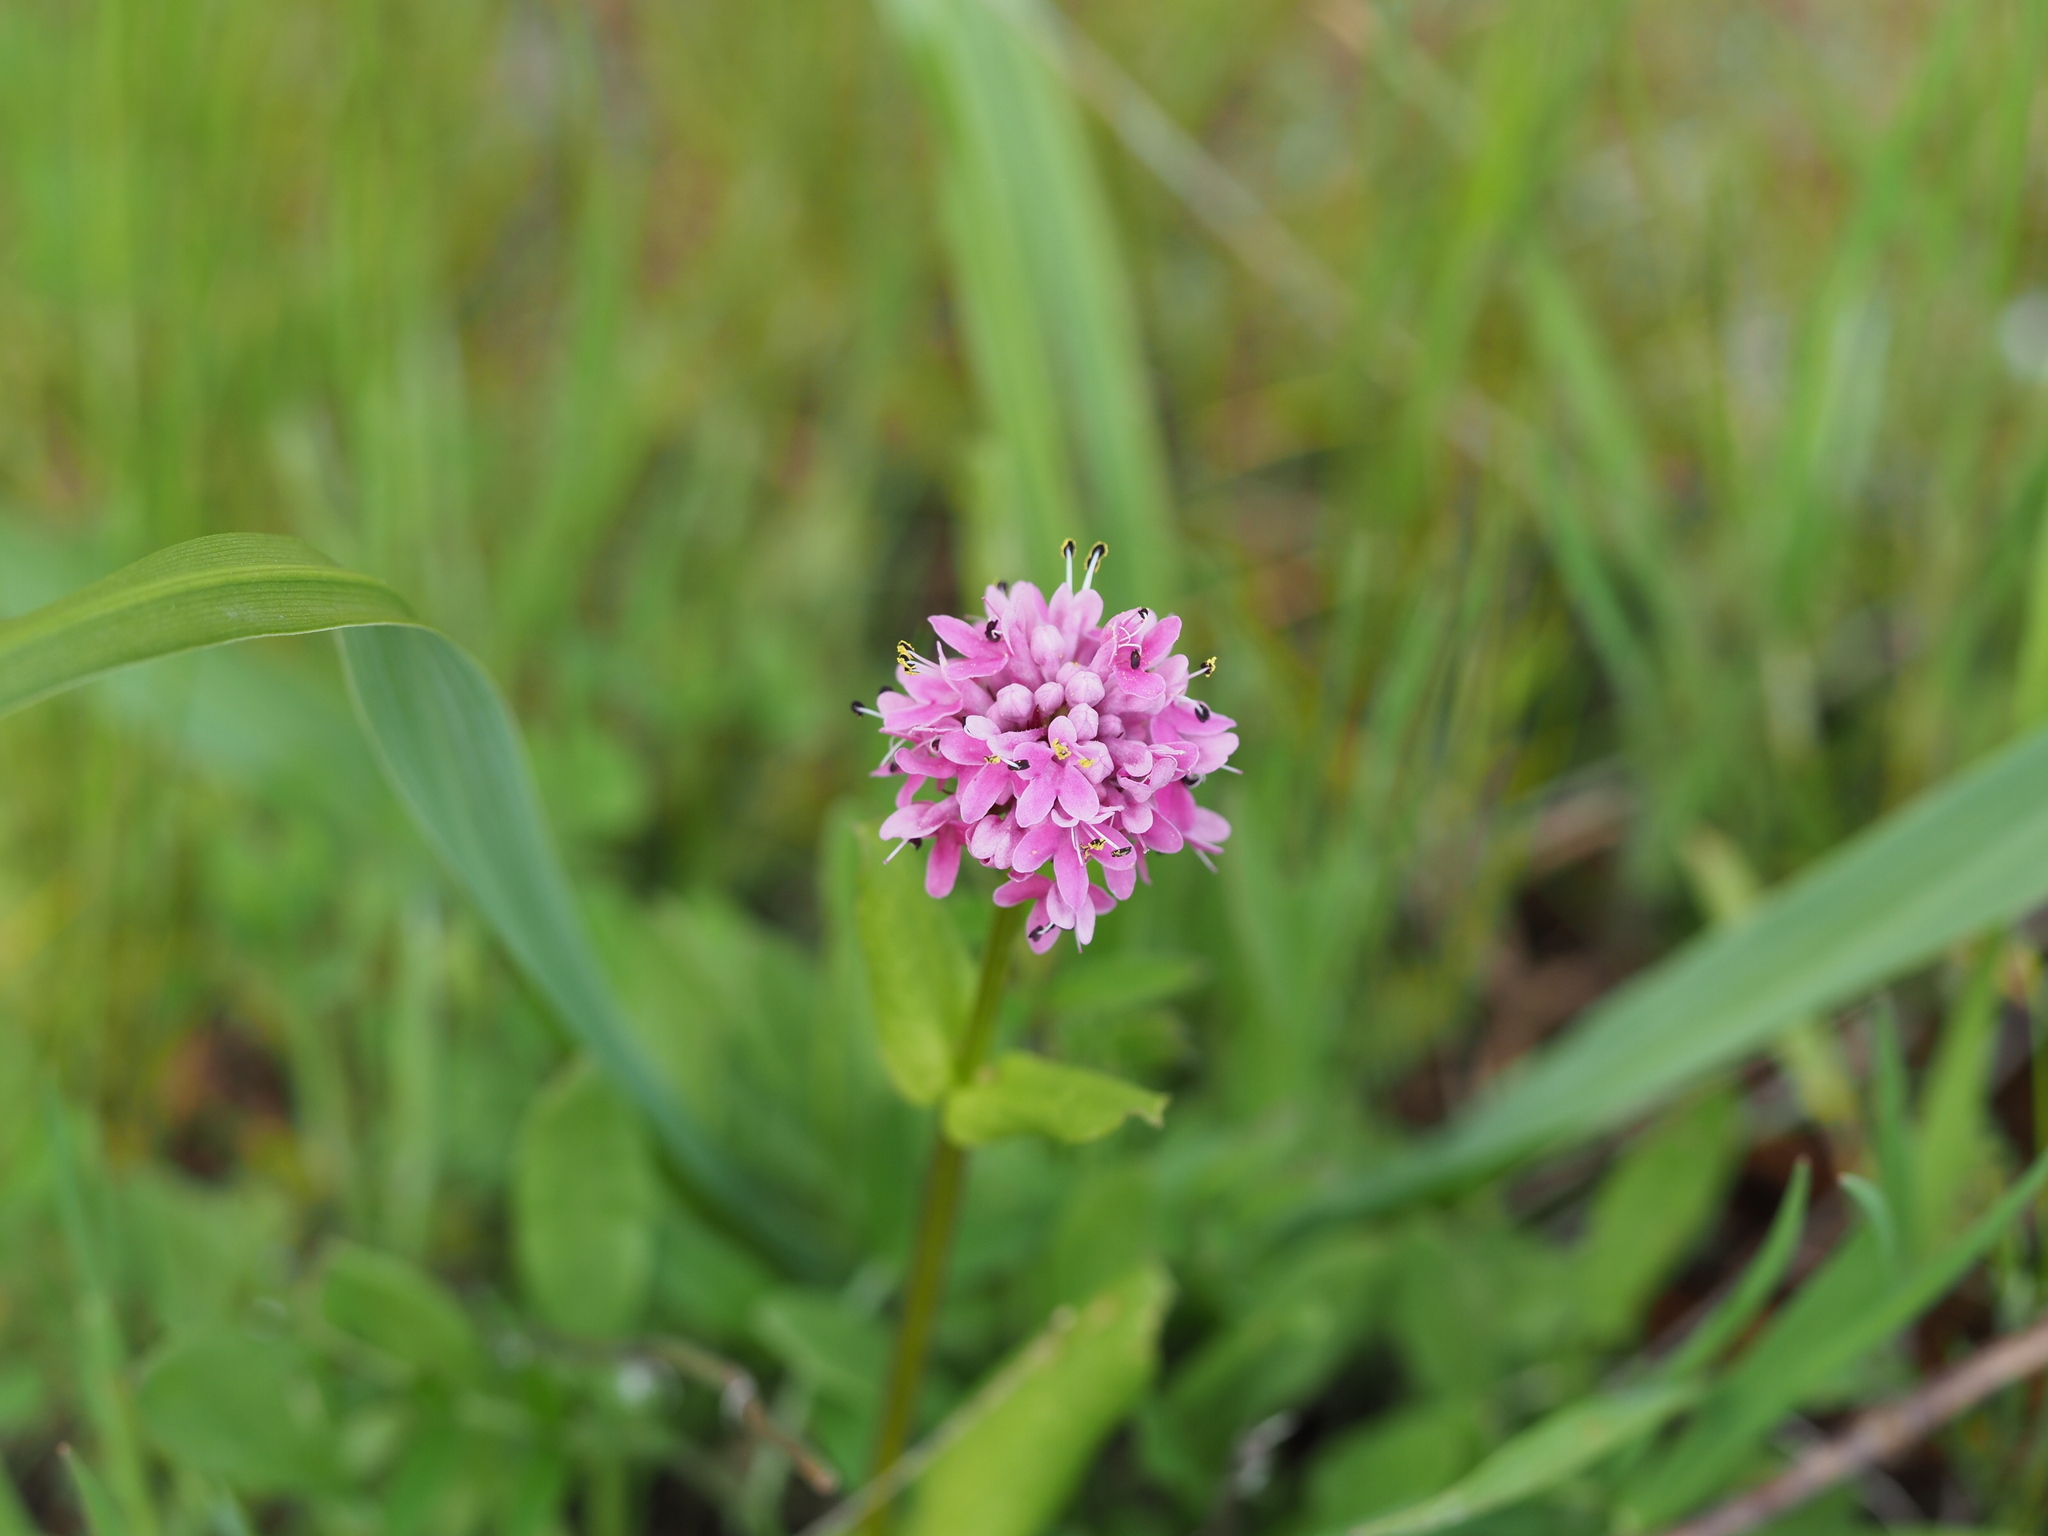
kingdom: Plantae
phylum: Tracheophyta
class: Magnoliopsida
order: Dipsacales
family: Caprifoliaceae
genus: Plectritis
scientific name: Plectritis congesta
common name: Pink plectritis
